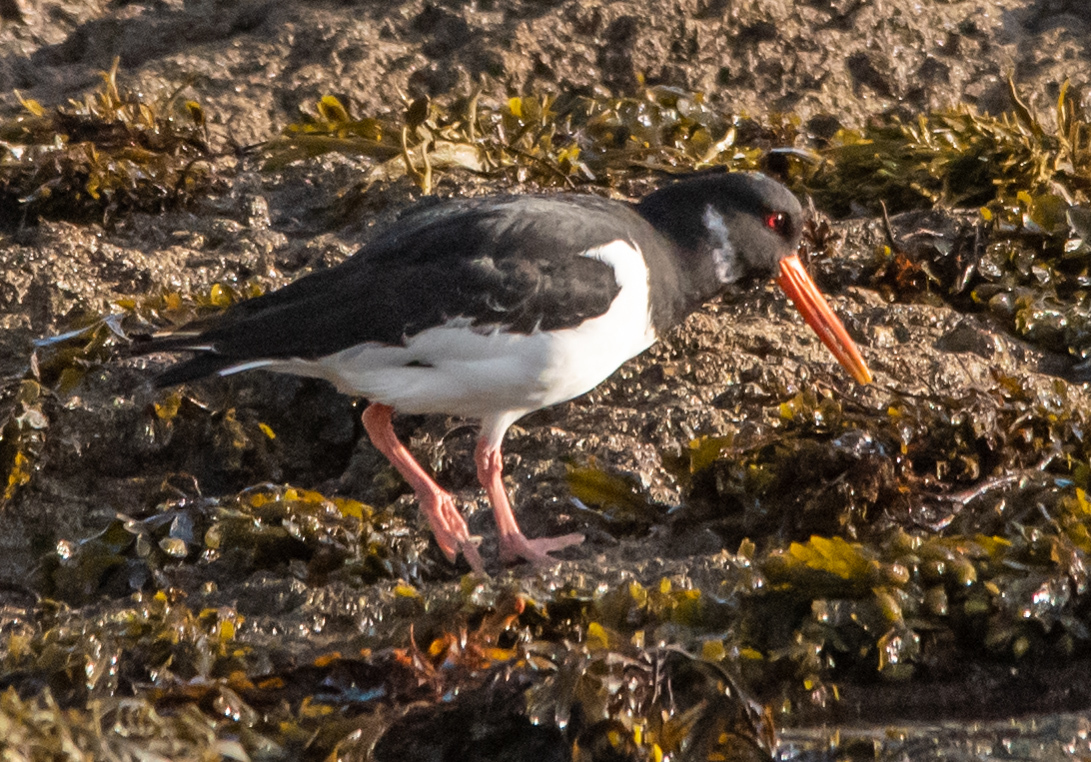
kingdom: Animalia
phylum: Chordata
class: Aves
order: Charadriiformes
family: Haematopodidae
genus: Haematopus
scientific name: Haematopus ostralegus
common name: Eurasian oystercatcher
